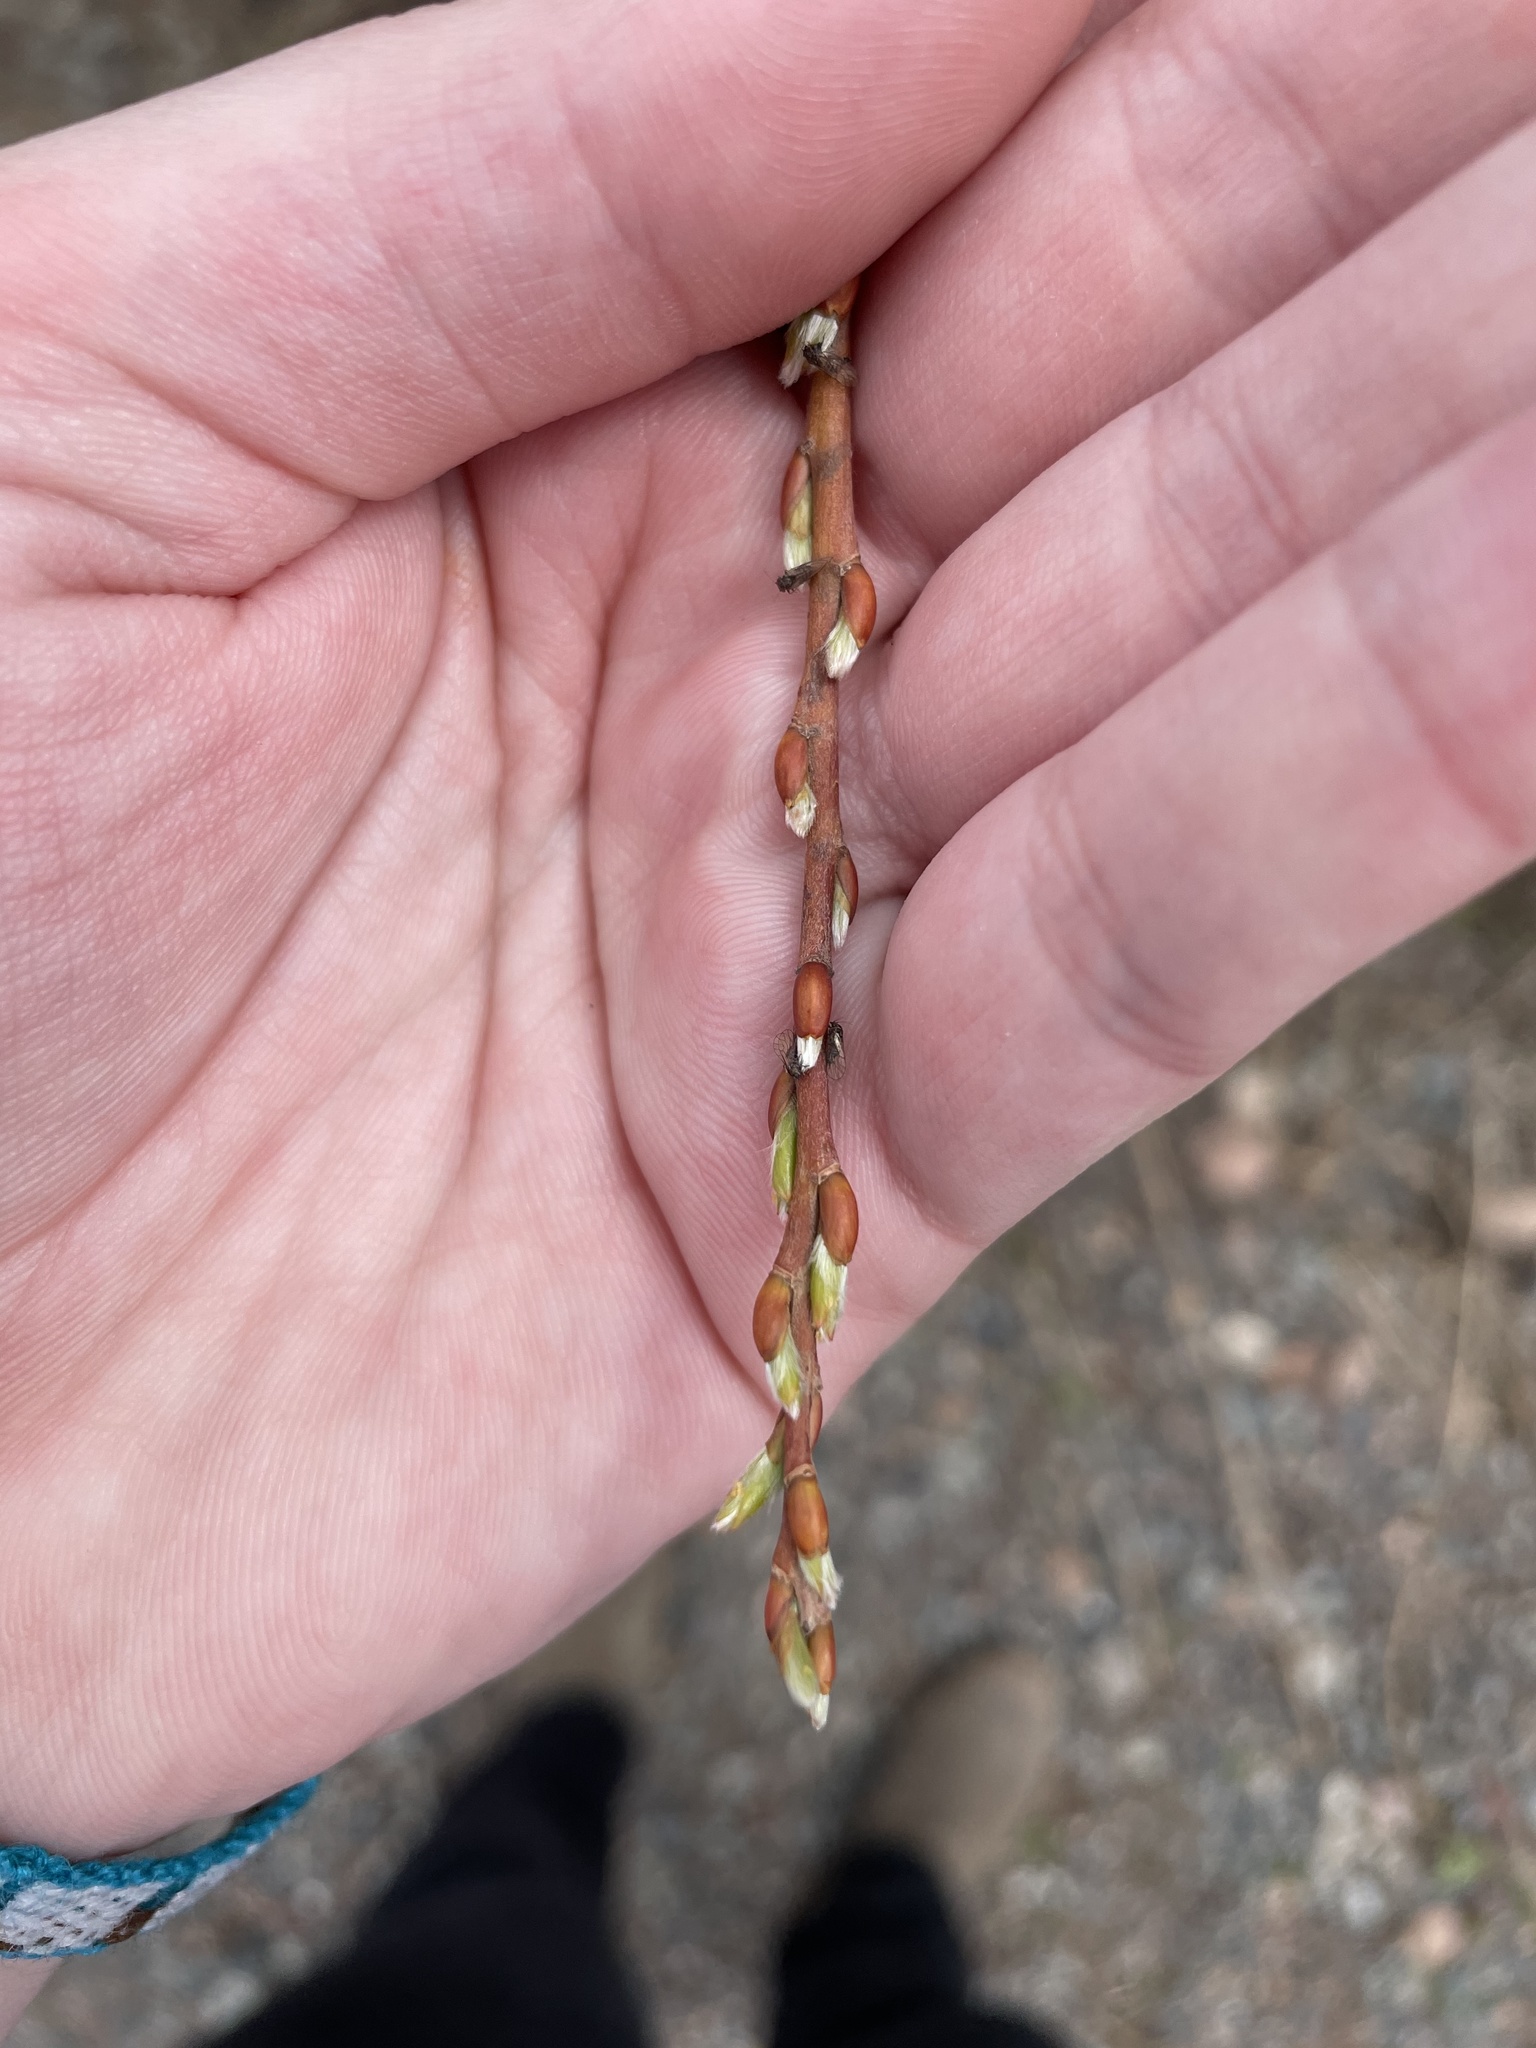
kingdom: Animalia
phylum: Arthropoda
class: Insecta
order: Diptera
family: Cecidomyiidae
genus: Rabdophaga
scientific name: Rabdophaga strobiloides
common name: Willow pinecone gall midge
